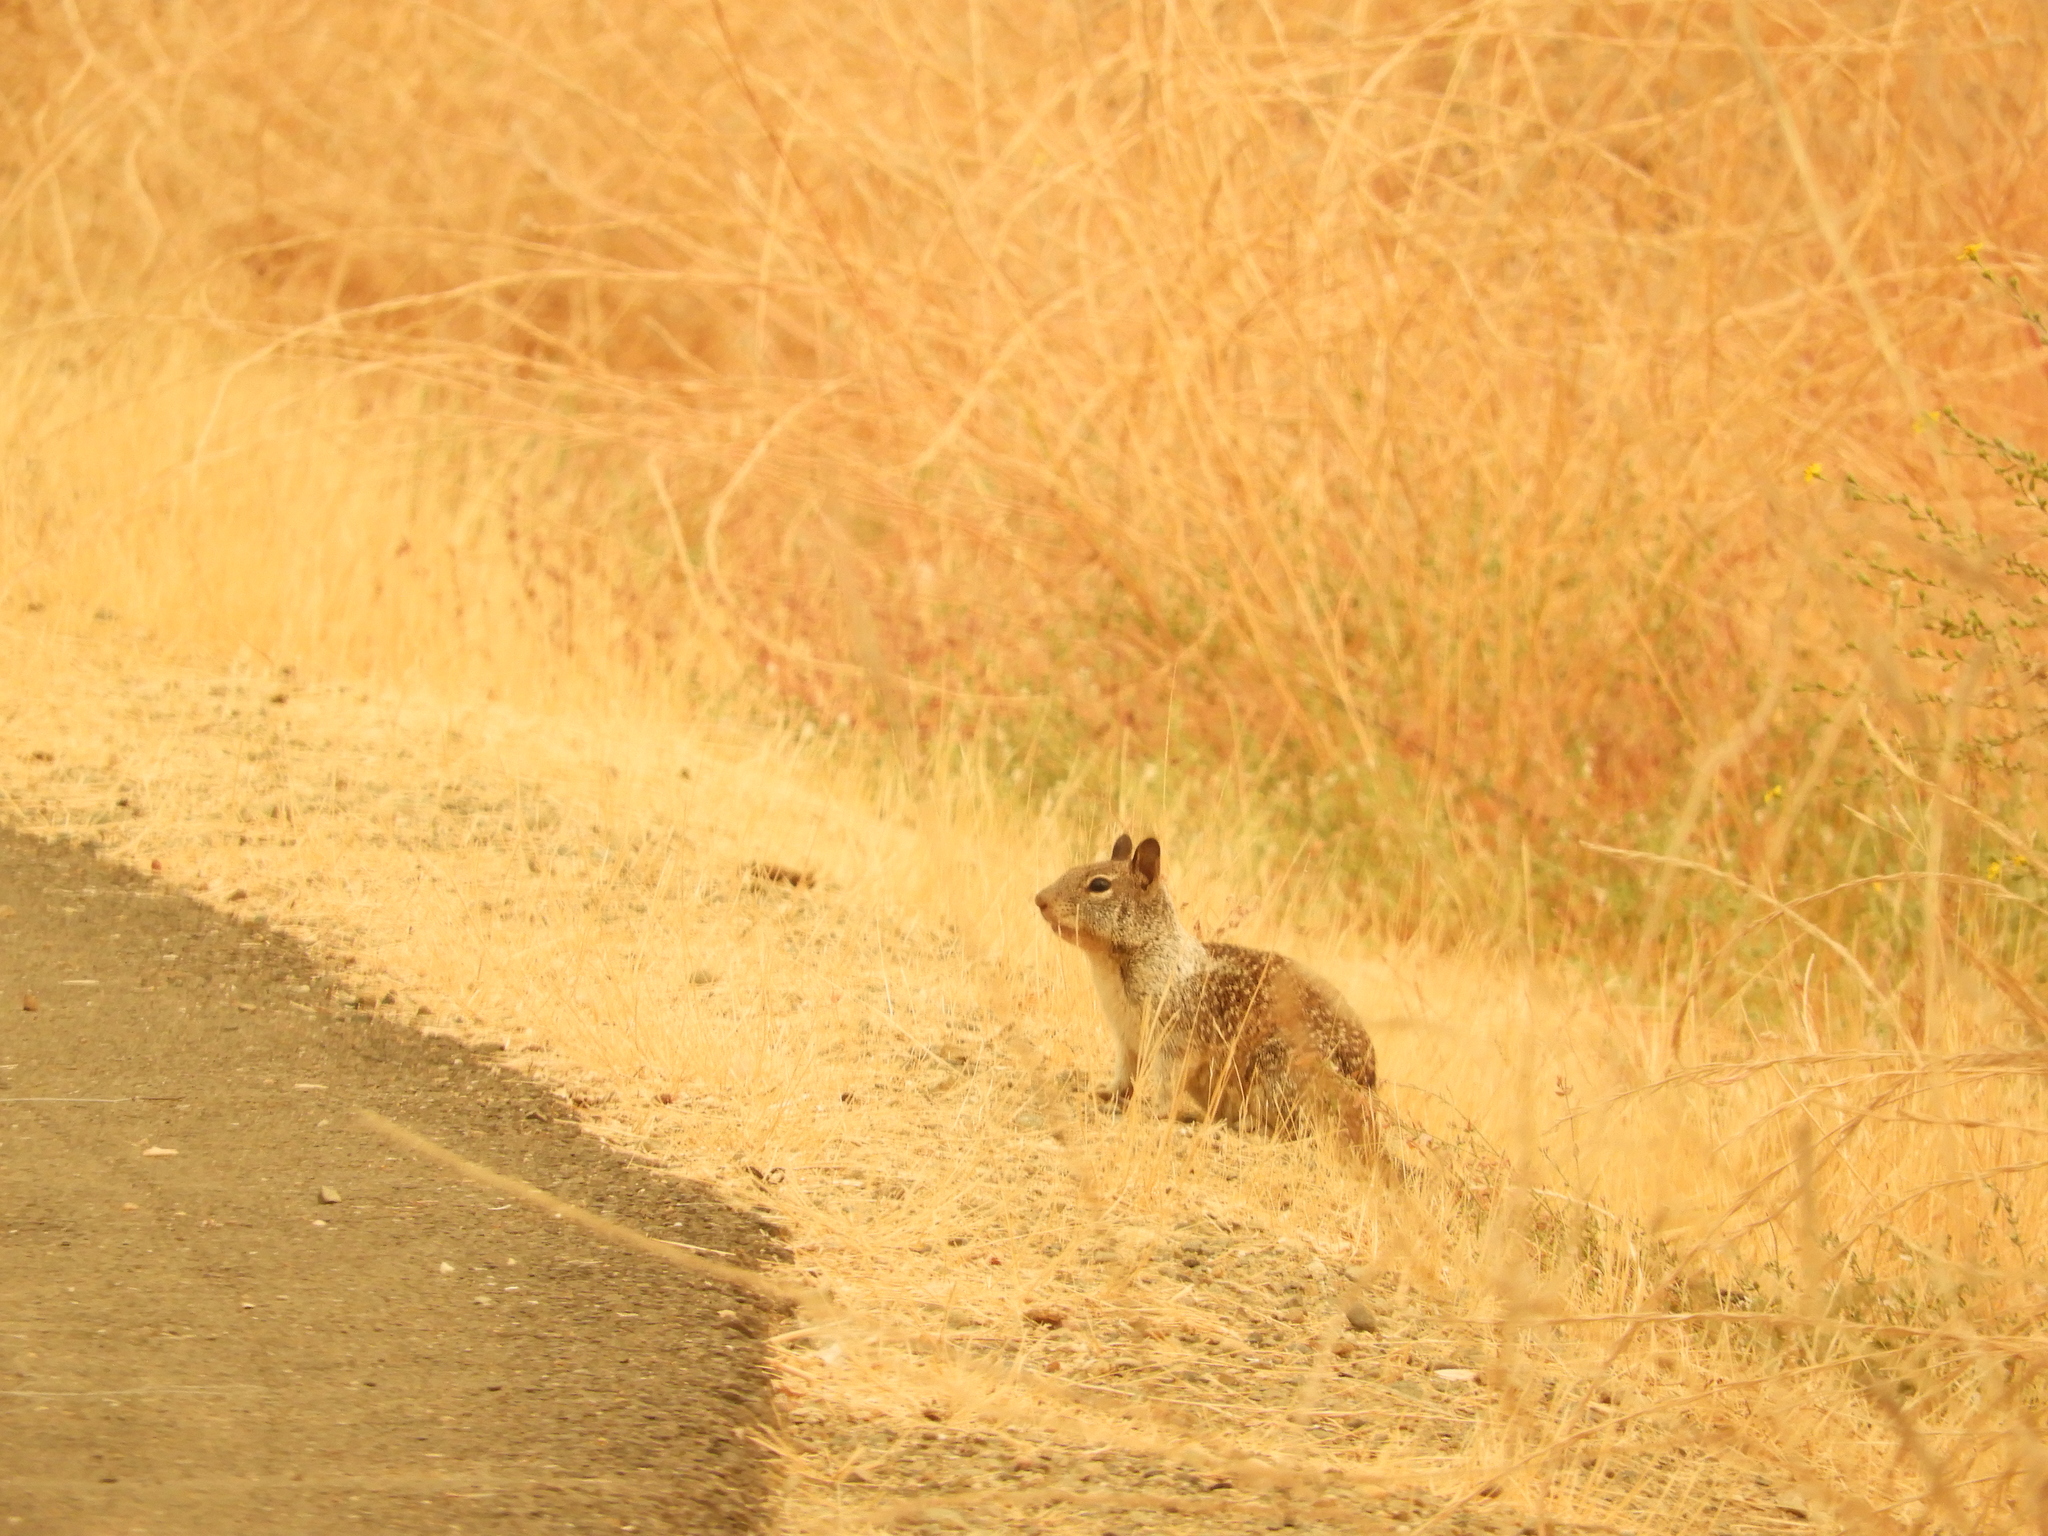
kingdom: Animalia
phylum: Chordata
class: Mammalia
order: Rodentia
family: Sciuridae
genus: Otospermophilus
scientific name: Otospermophilus beecheyi
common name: California ground squirrel
